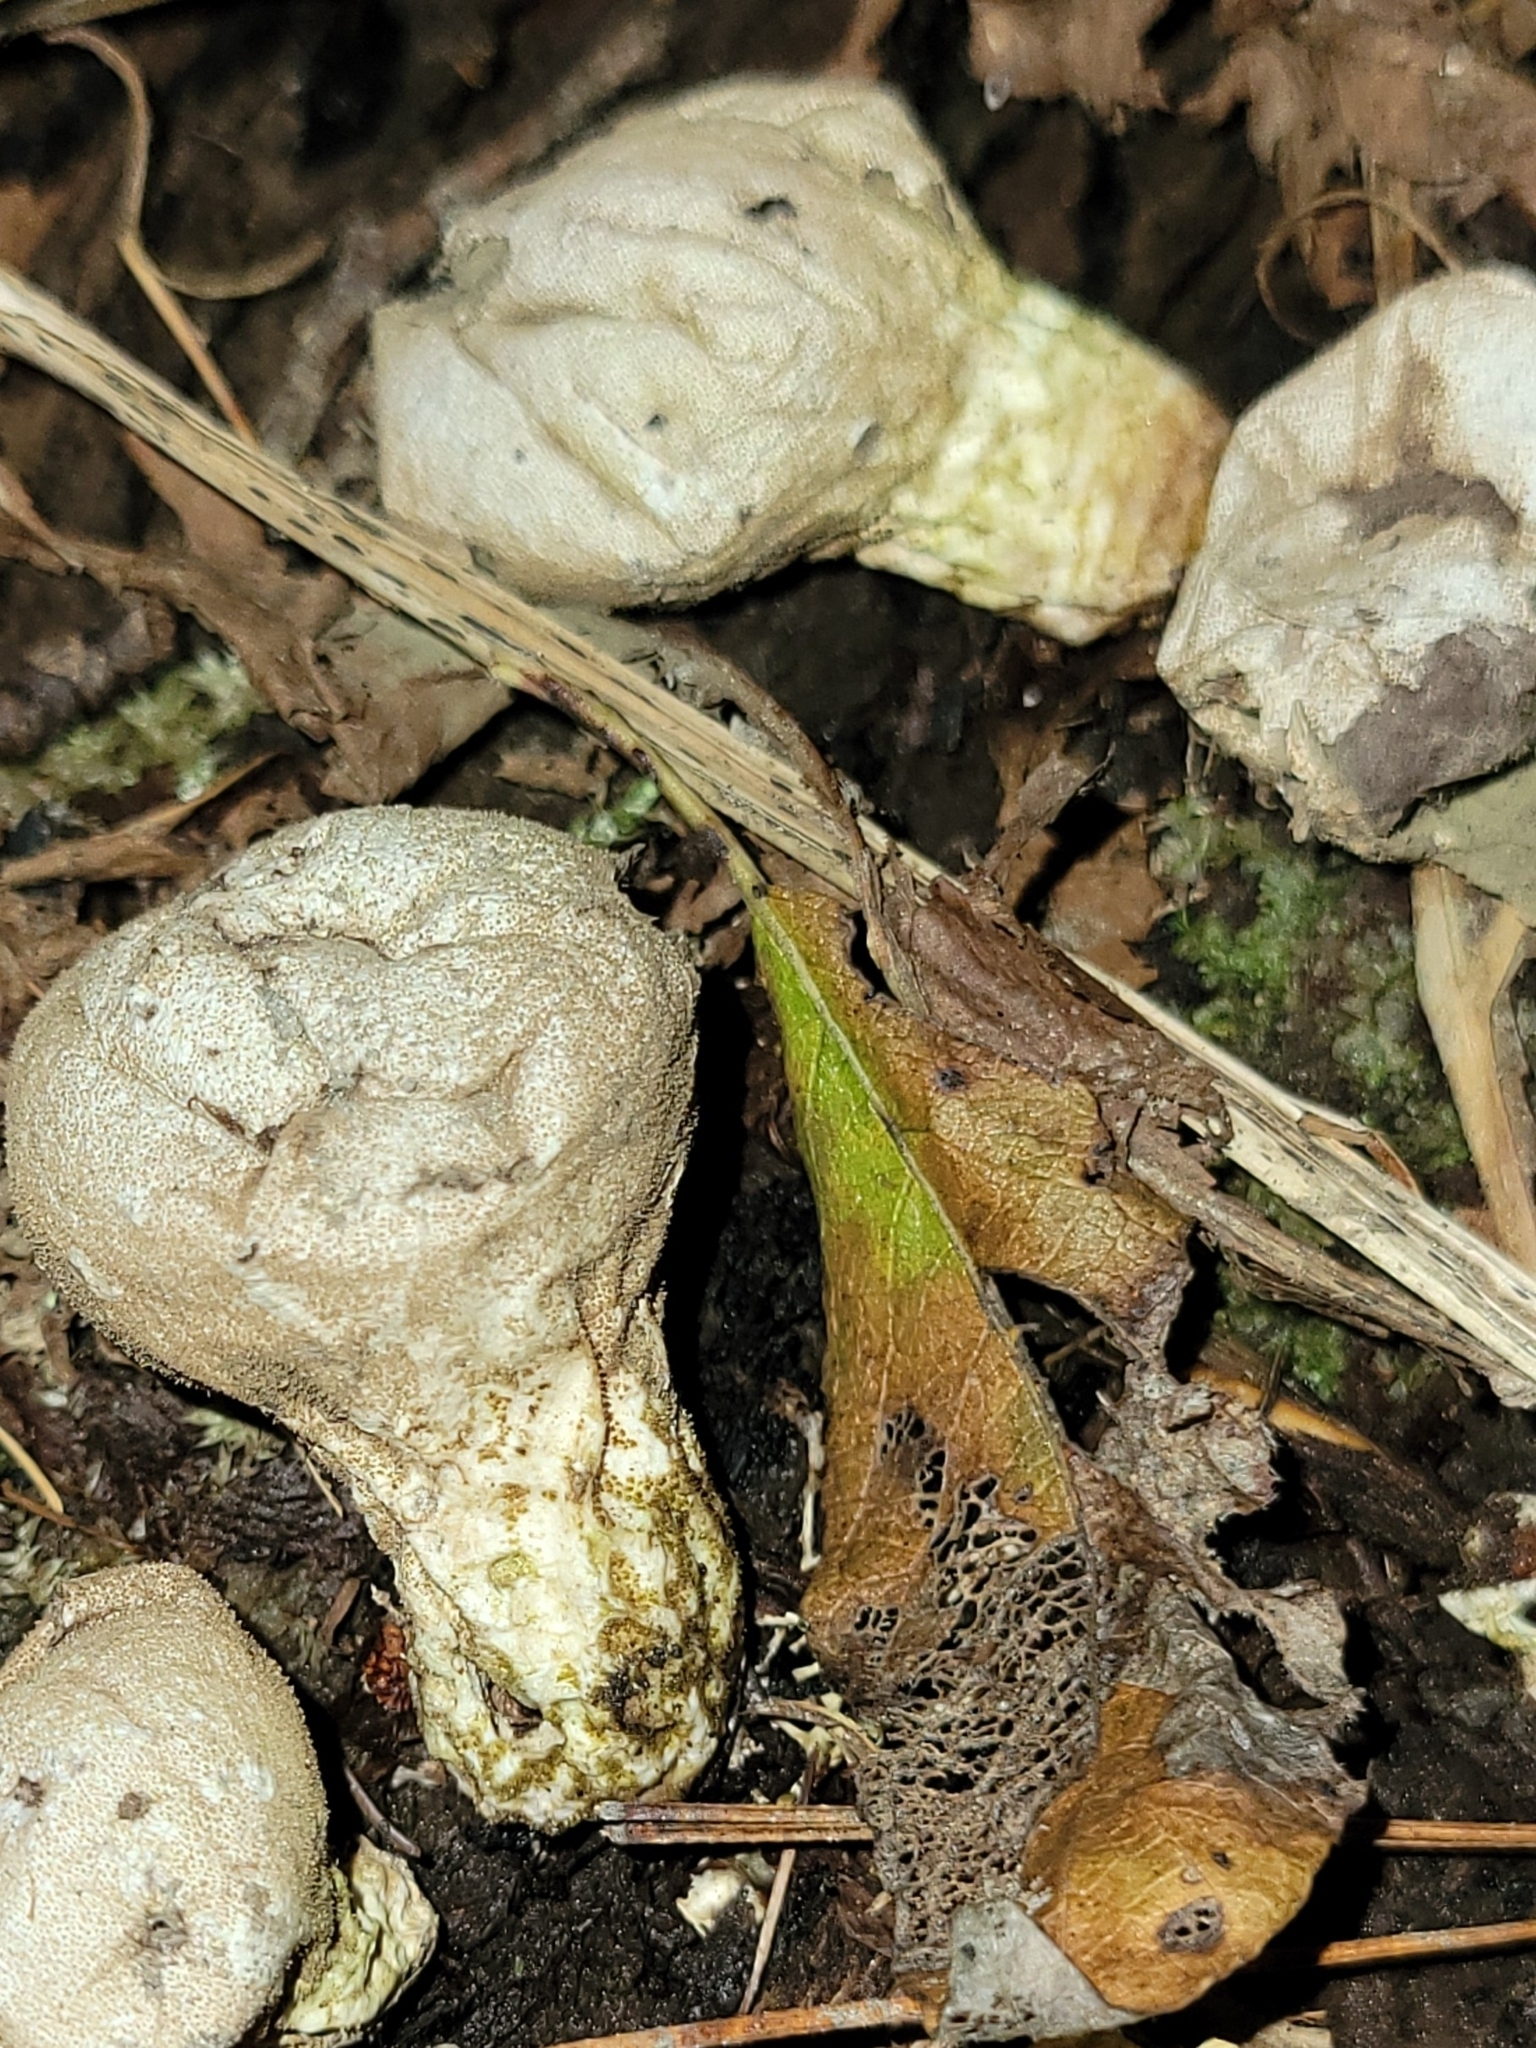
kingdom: Fungi
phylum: Basidiomycota
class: Agaricomycetes
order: Agaricales
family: Lycoperdaceae
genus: Apioperdon
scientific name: Apioperdon pyriforme
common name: Pear-shaped puffball
